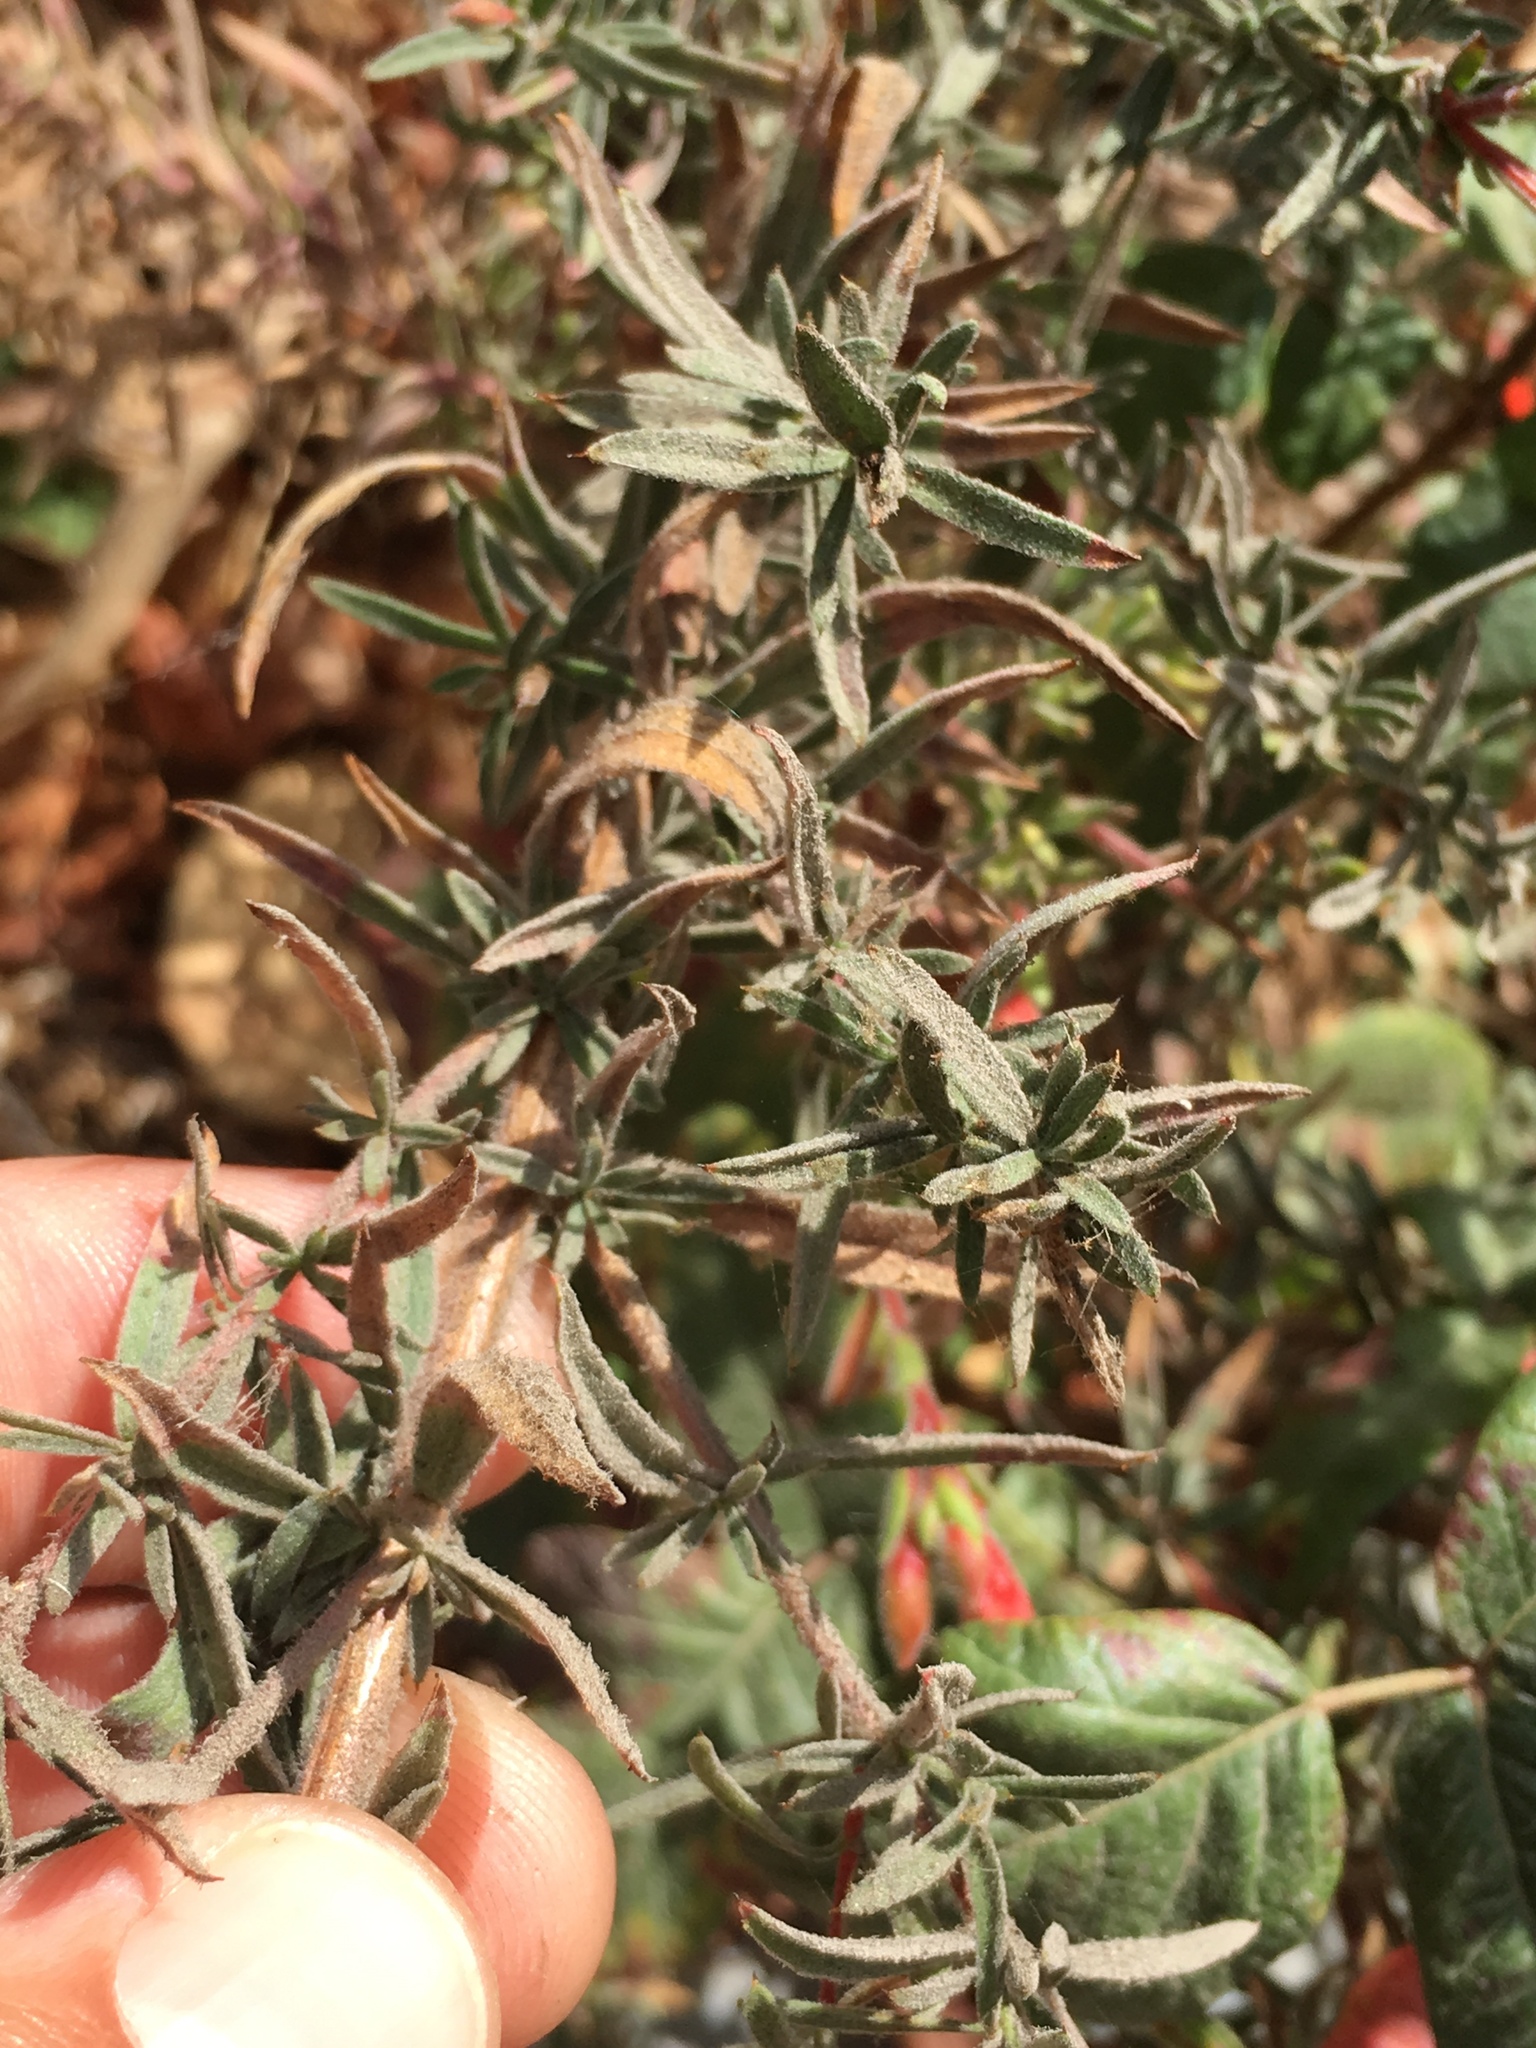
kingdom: Plantae
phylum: Tracheophyta
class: Magnoliopsida
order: Myrtales
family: Onagraceae
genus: Epilobium
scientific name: Epilobium canum
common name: California-fuchsia
